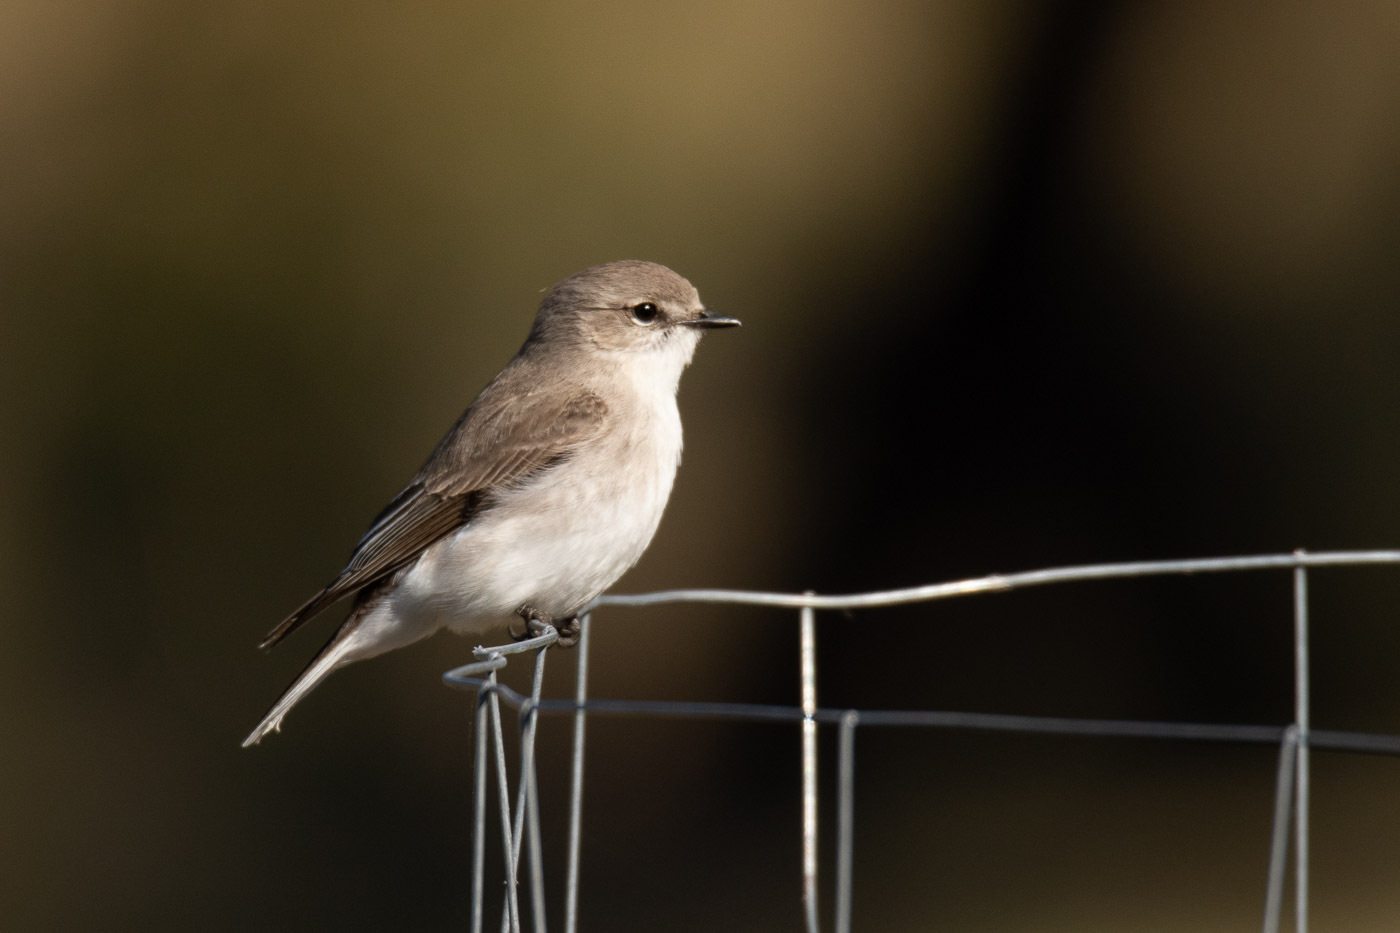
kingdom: Animalia
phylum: Chordata
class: Aves
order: Passeriformes
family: Petroicidae
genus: Microeca
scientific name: Microeca fascinans
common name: Jacky winter
